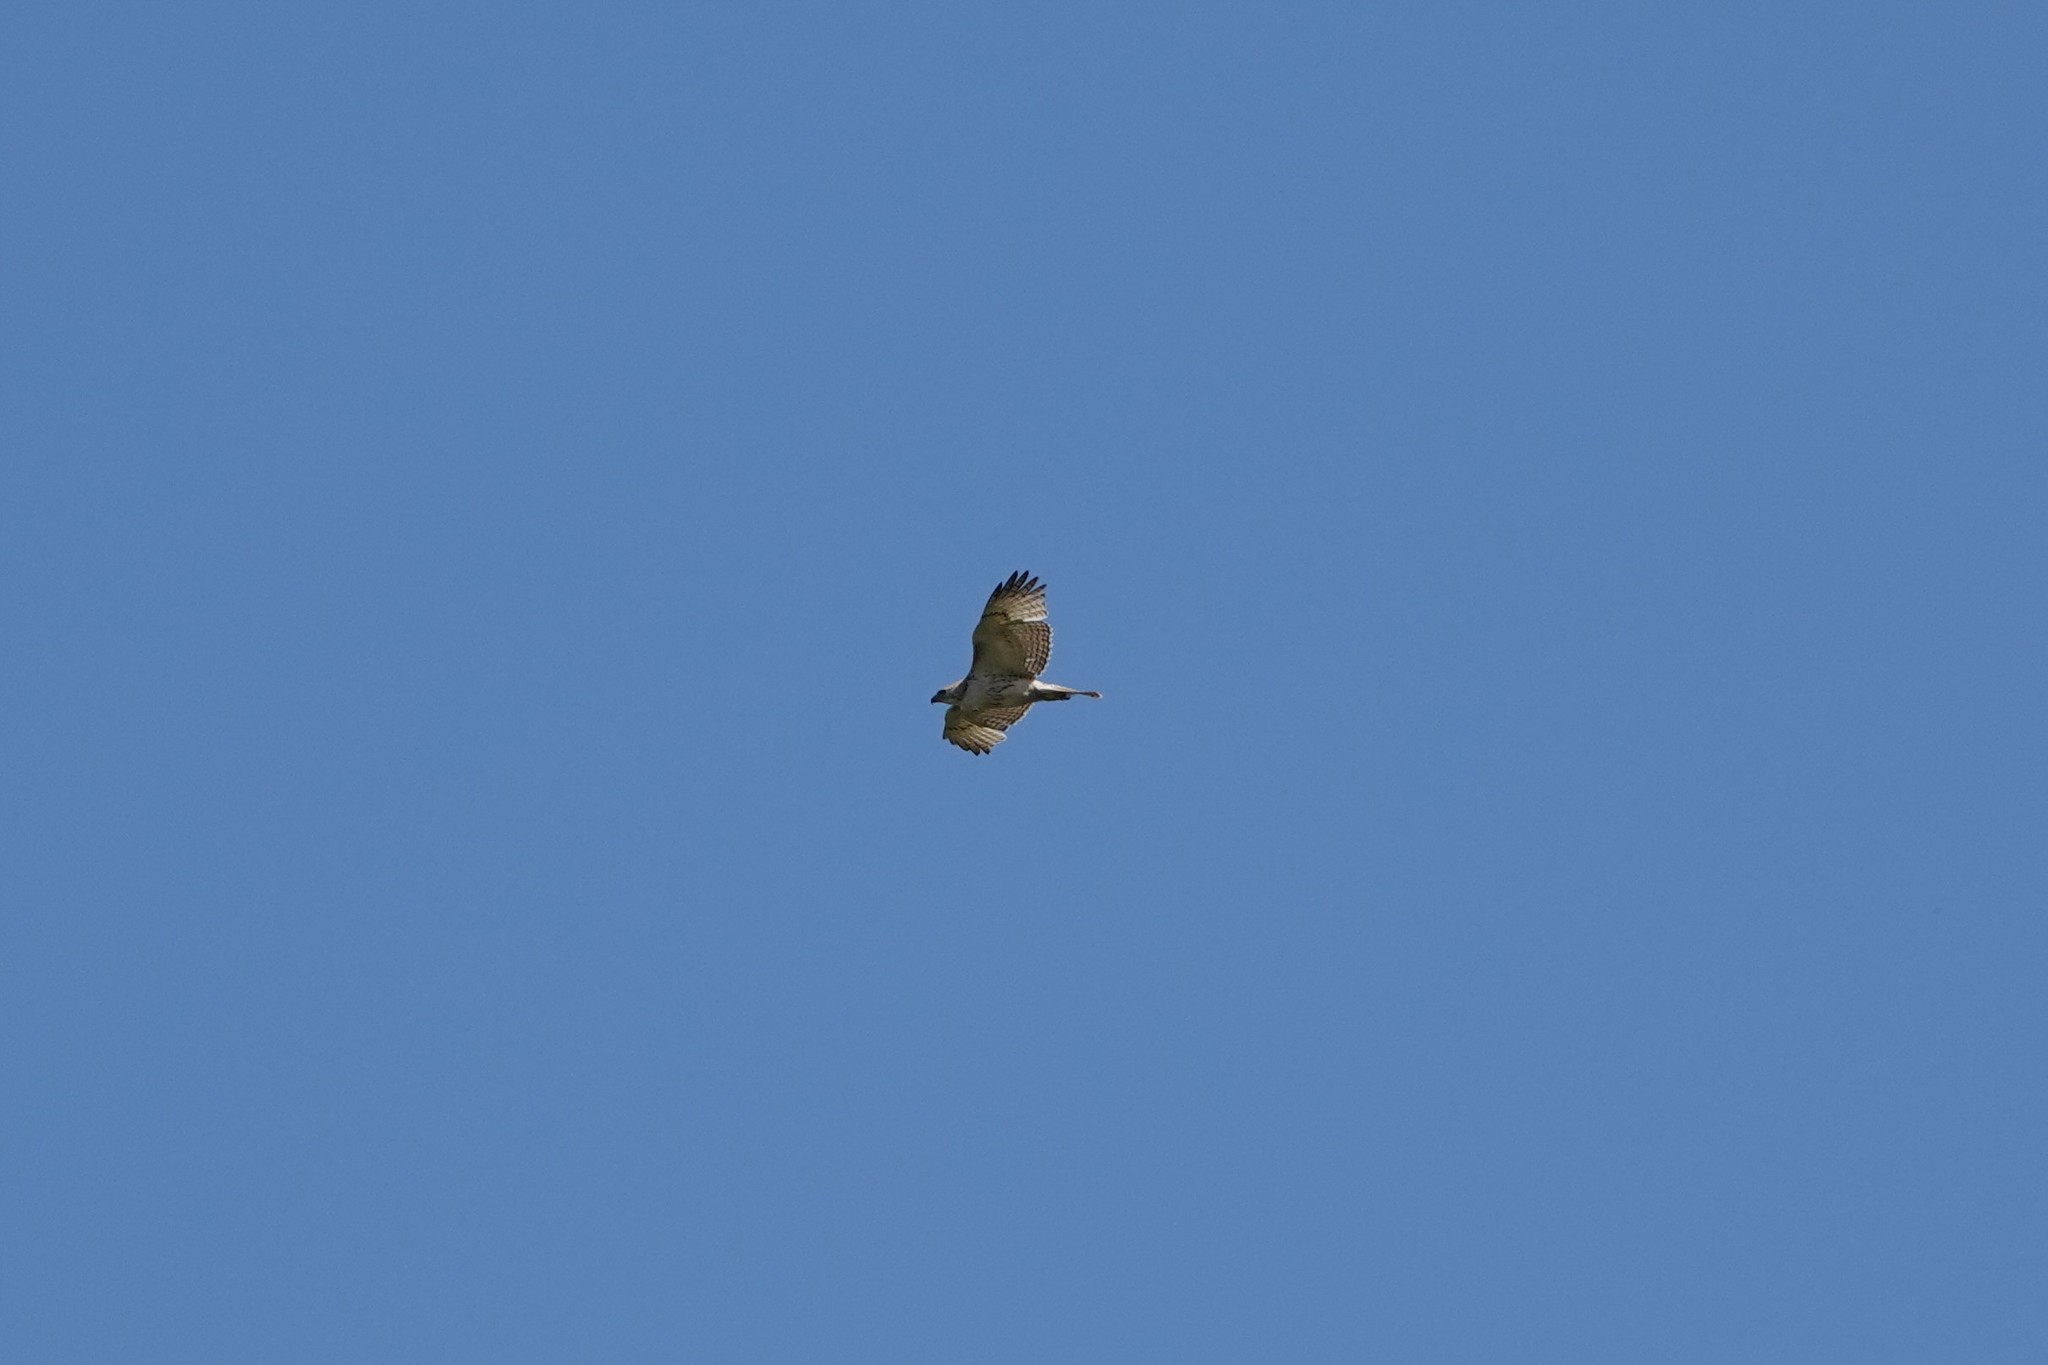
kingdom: Animalia
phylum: Chordata
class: Aves
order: Accipitriformes
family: Accipitridae
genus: Buteo
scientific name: Buteo jamaicensis
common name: Red-tailed hawk
